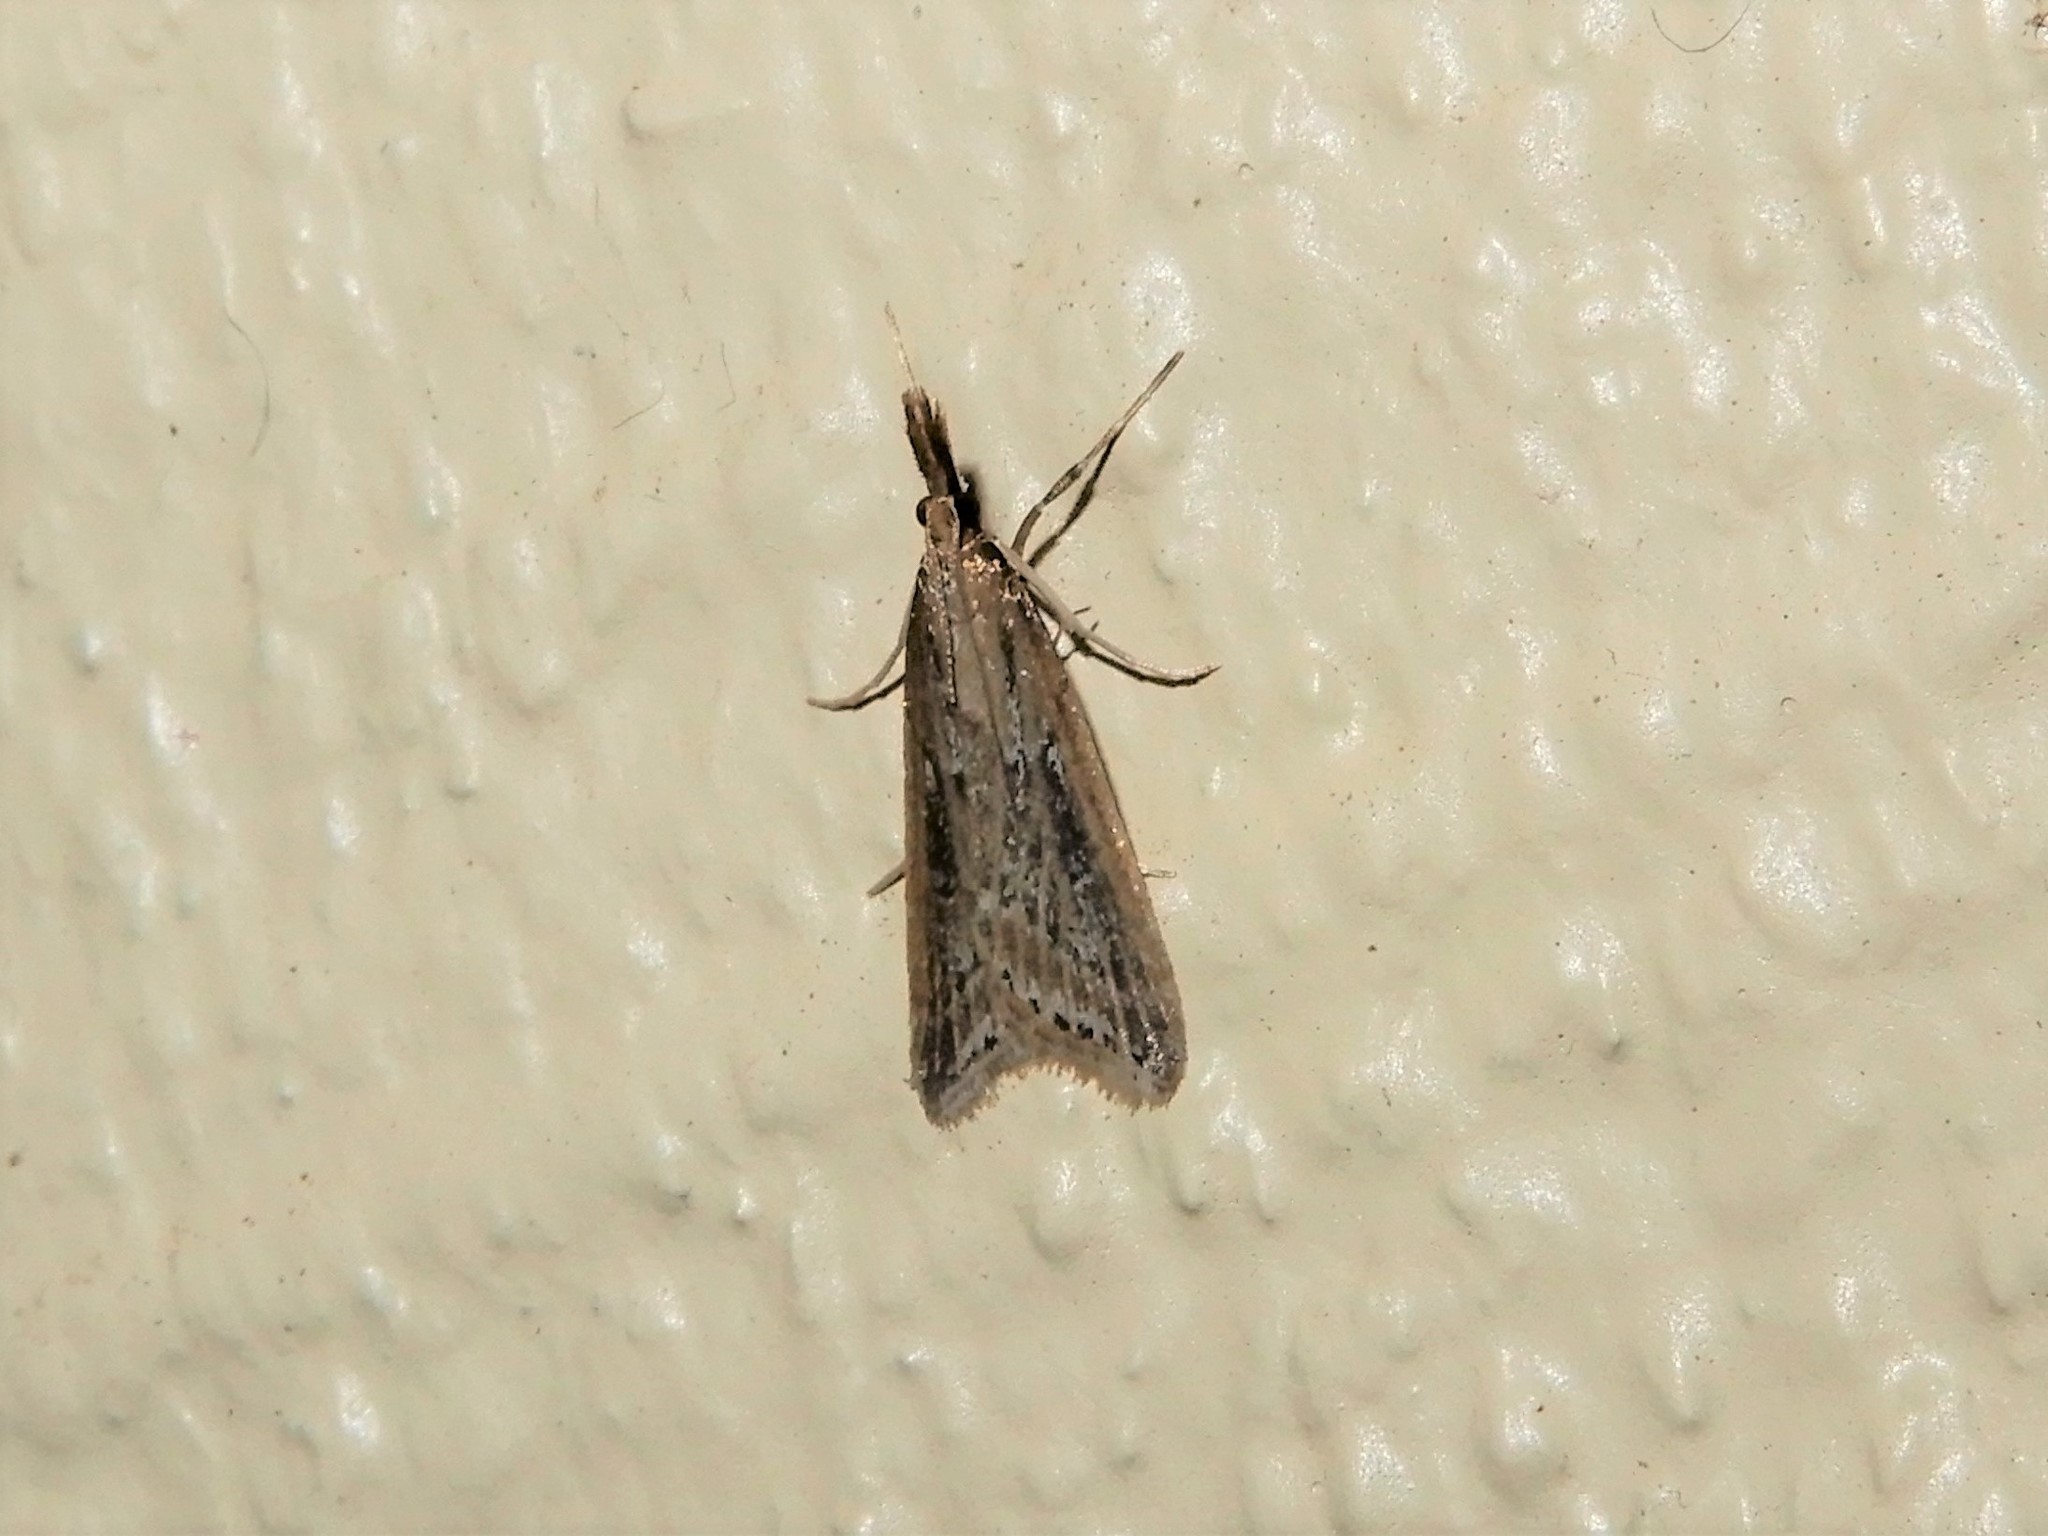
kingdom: Animalia
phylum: Arthropoda
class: Insecta
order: Lepidoptera
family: Crambidae
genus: Antiscopa
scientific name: Antiscopa elaphra
